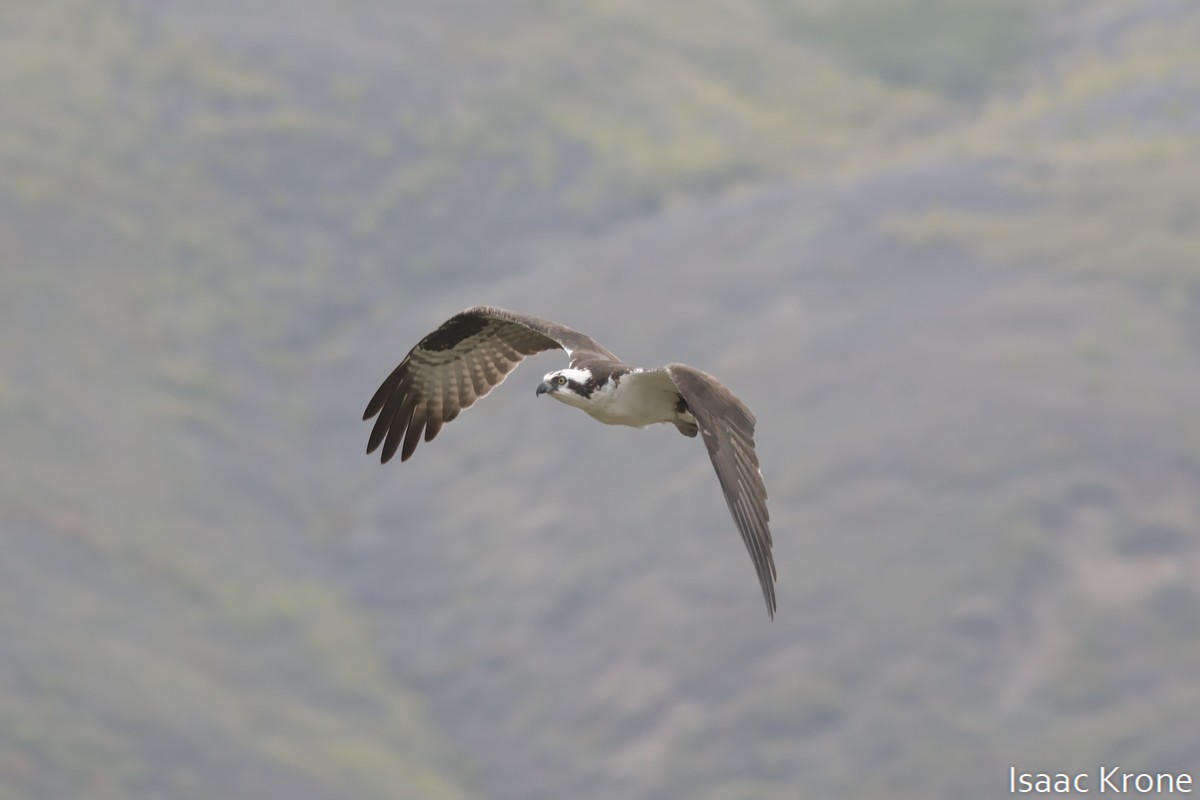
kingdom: Animalia
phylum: Chordata
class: Aves
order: Accipitriformes
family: Pandionidae
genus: Pandion
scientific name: Pandion haliaetus
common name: Osprey
